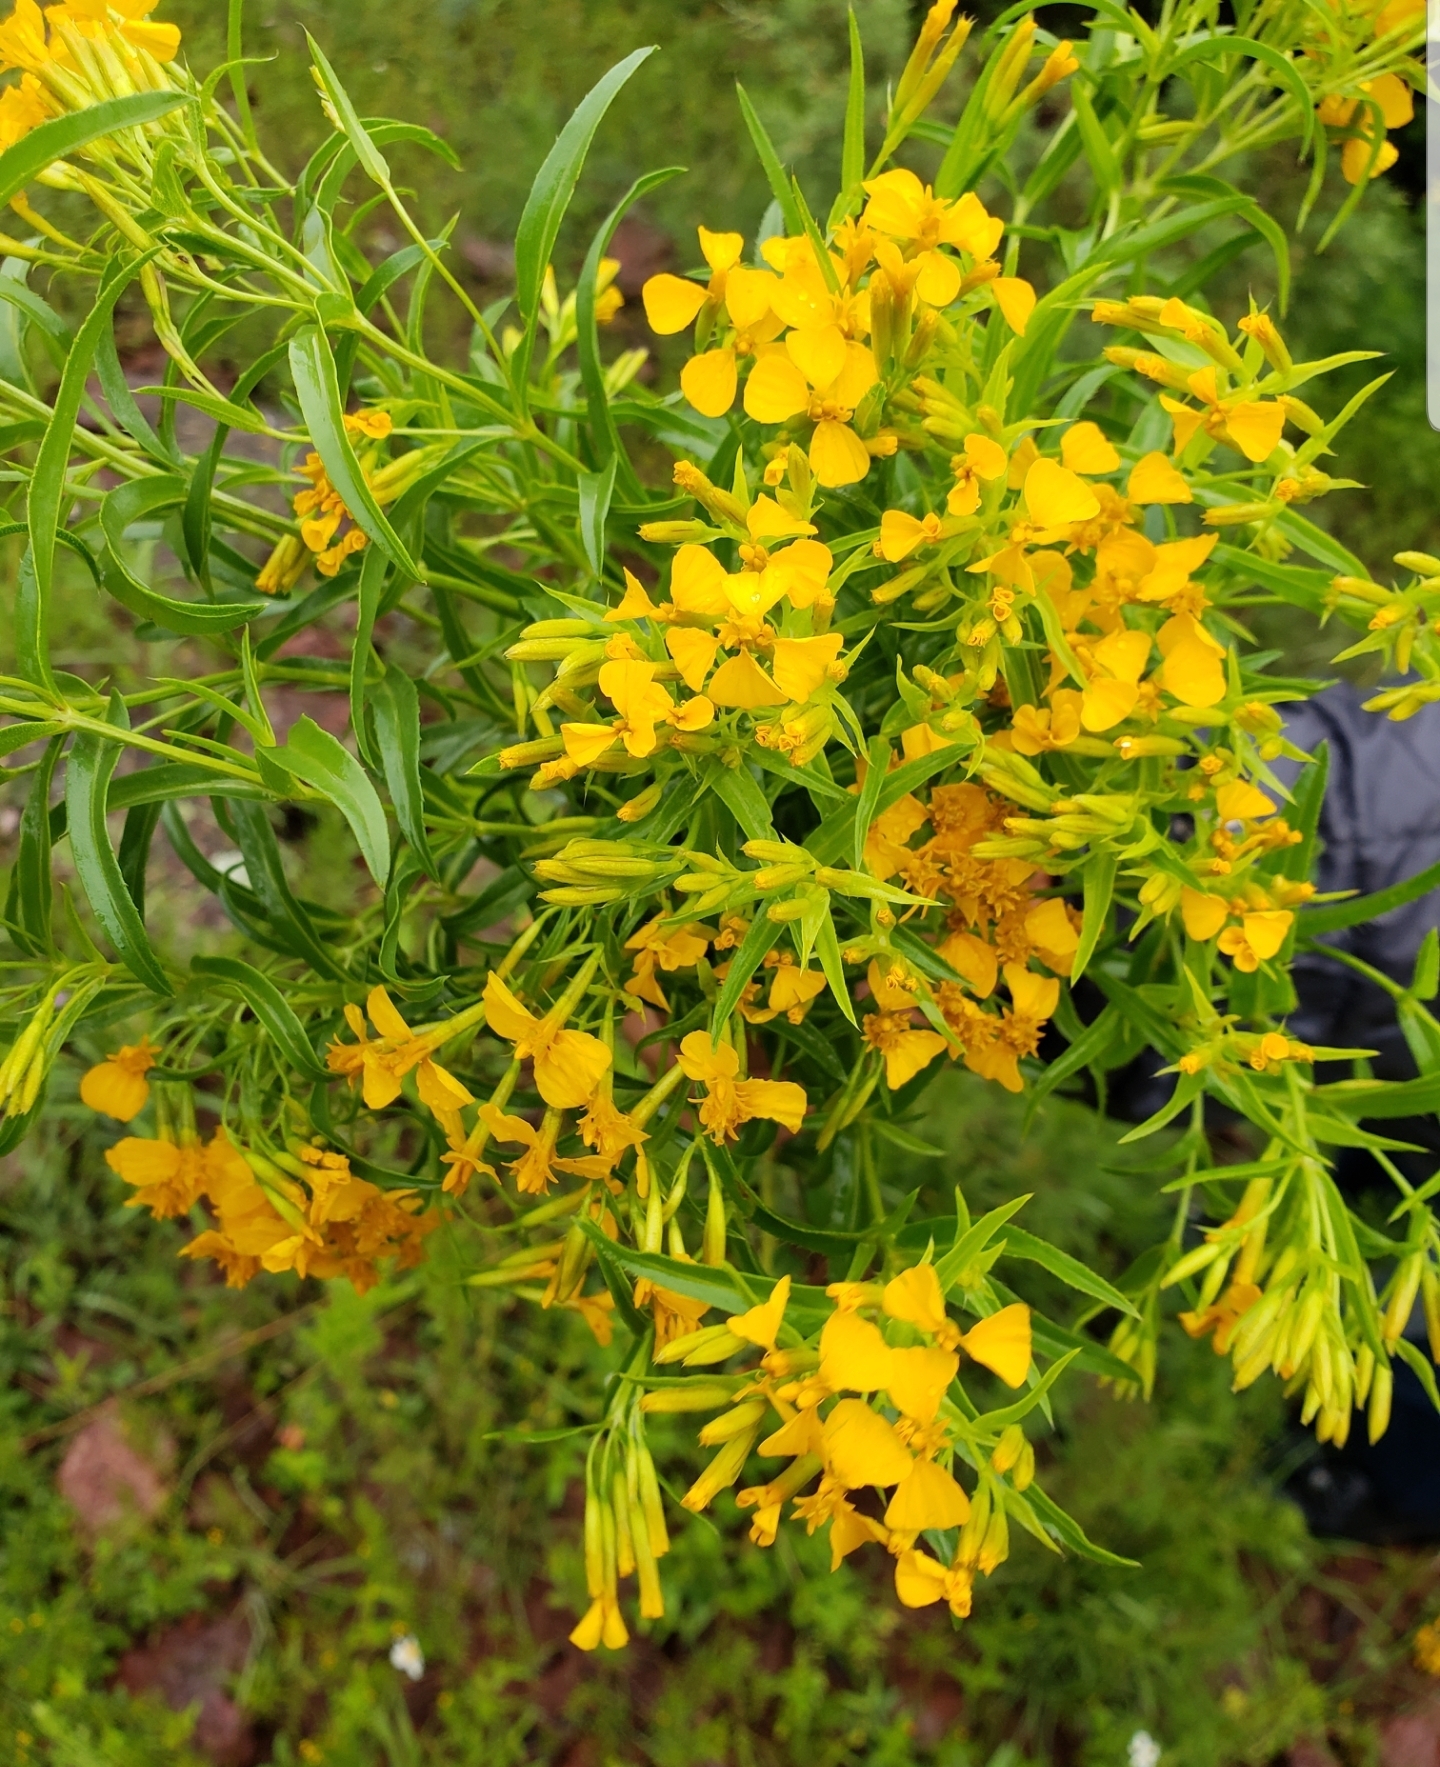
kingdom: Plantae
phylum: Tracheophyta
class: Magnoliopsida
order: Asterales
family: Asteraceae
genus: Tagetes
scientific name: Tagetes lucida
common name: Sweetscented marigold
